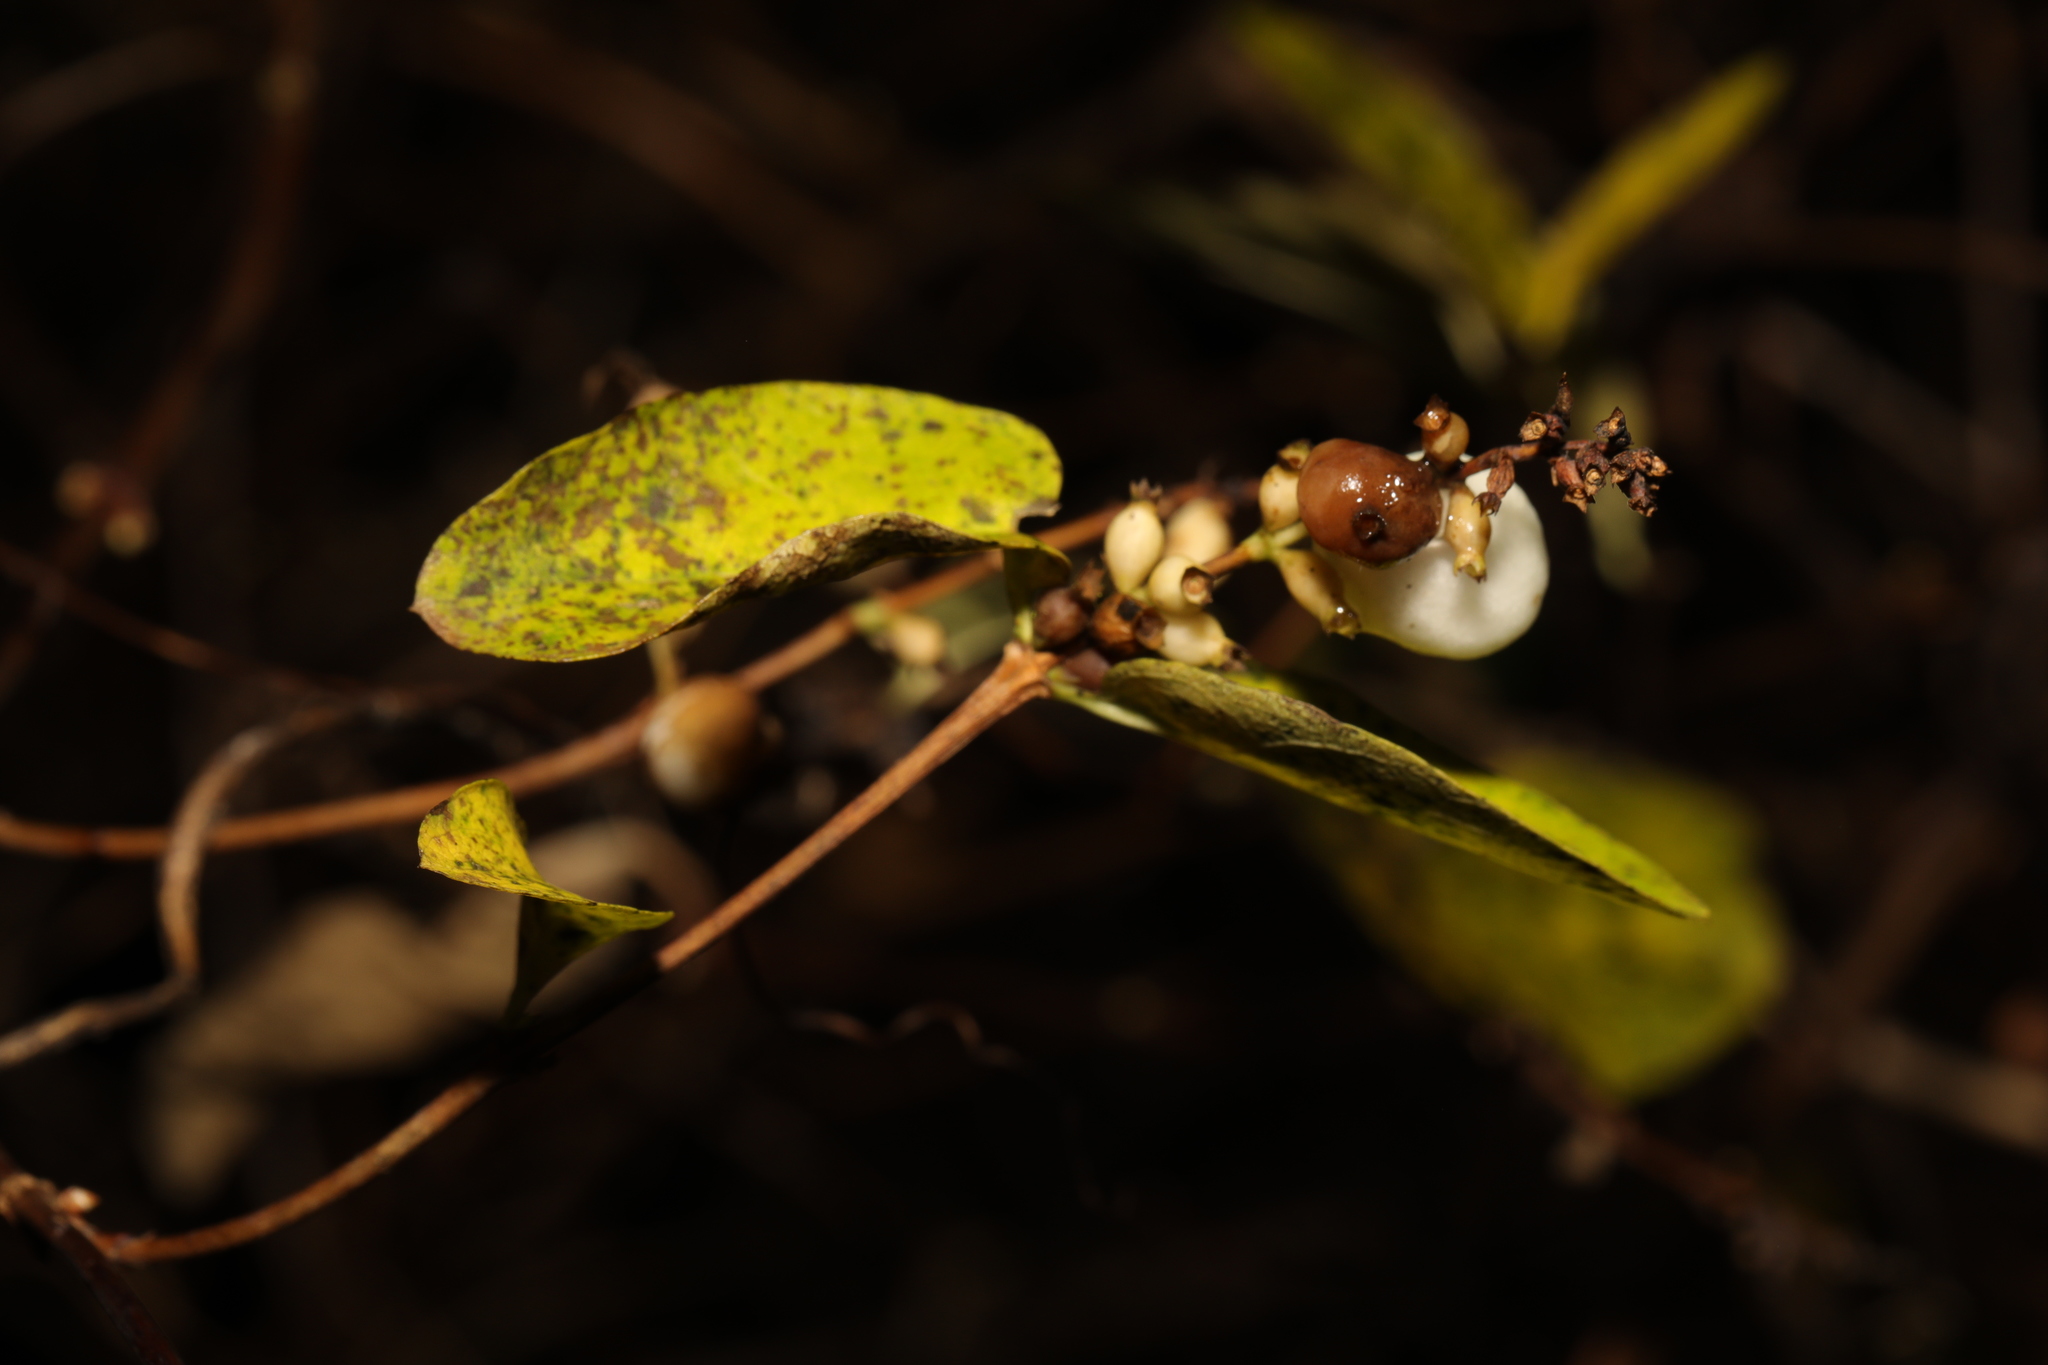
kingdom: Plantae
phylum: Tracheophyta
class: Magnoliopsida
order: Dipsacales
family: Caprifoliaceae
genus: Symphoricarpos
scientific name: Symphoricarpos albus
